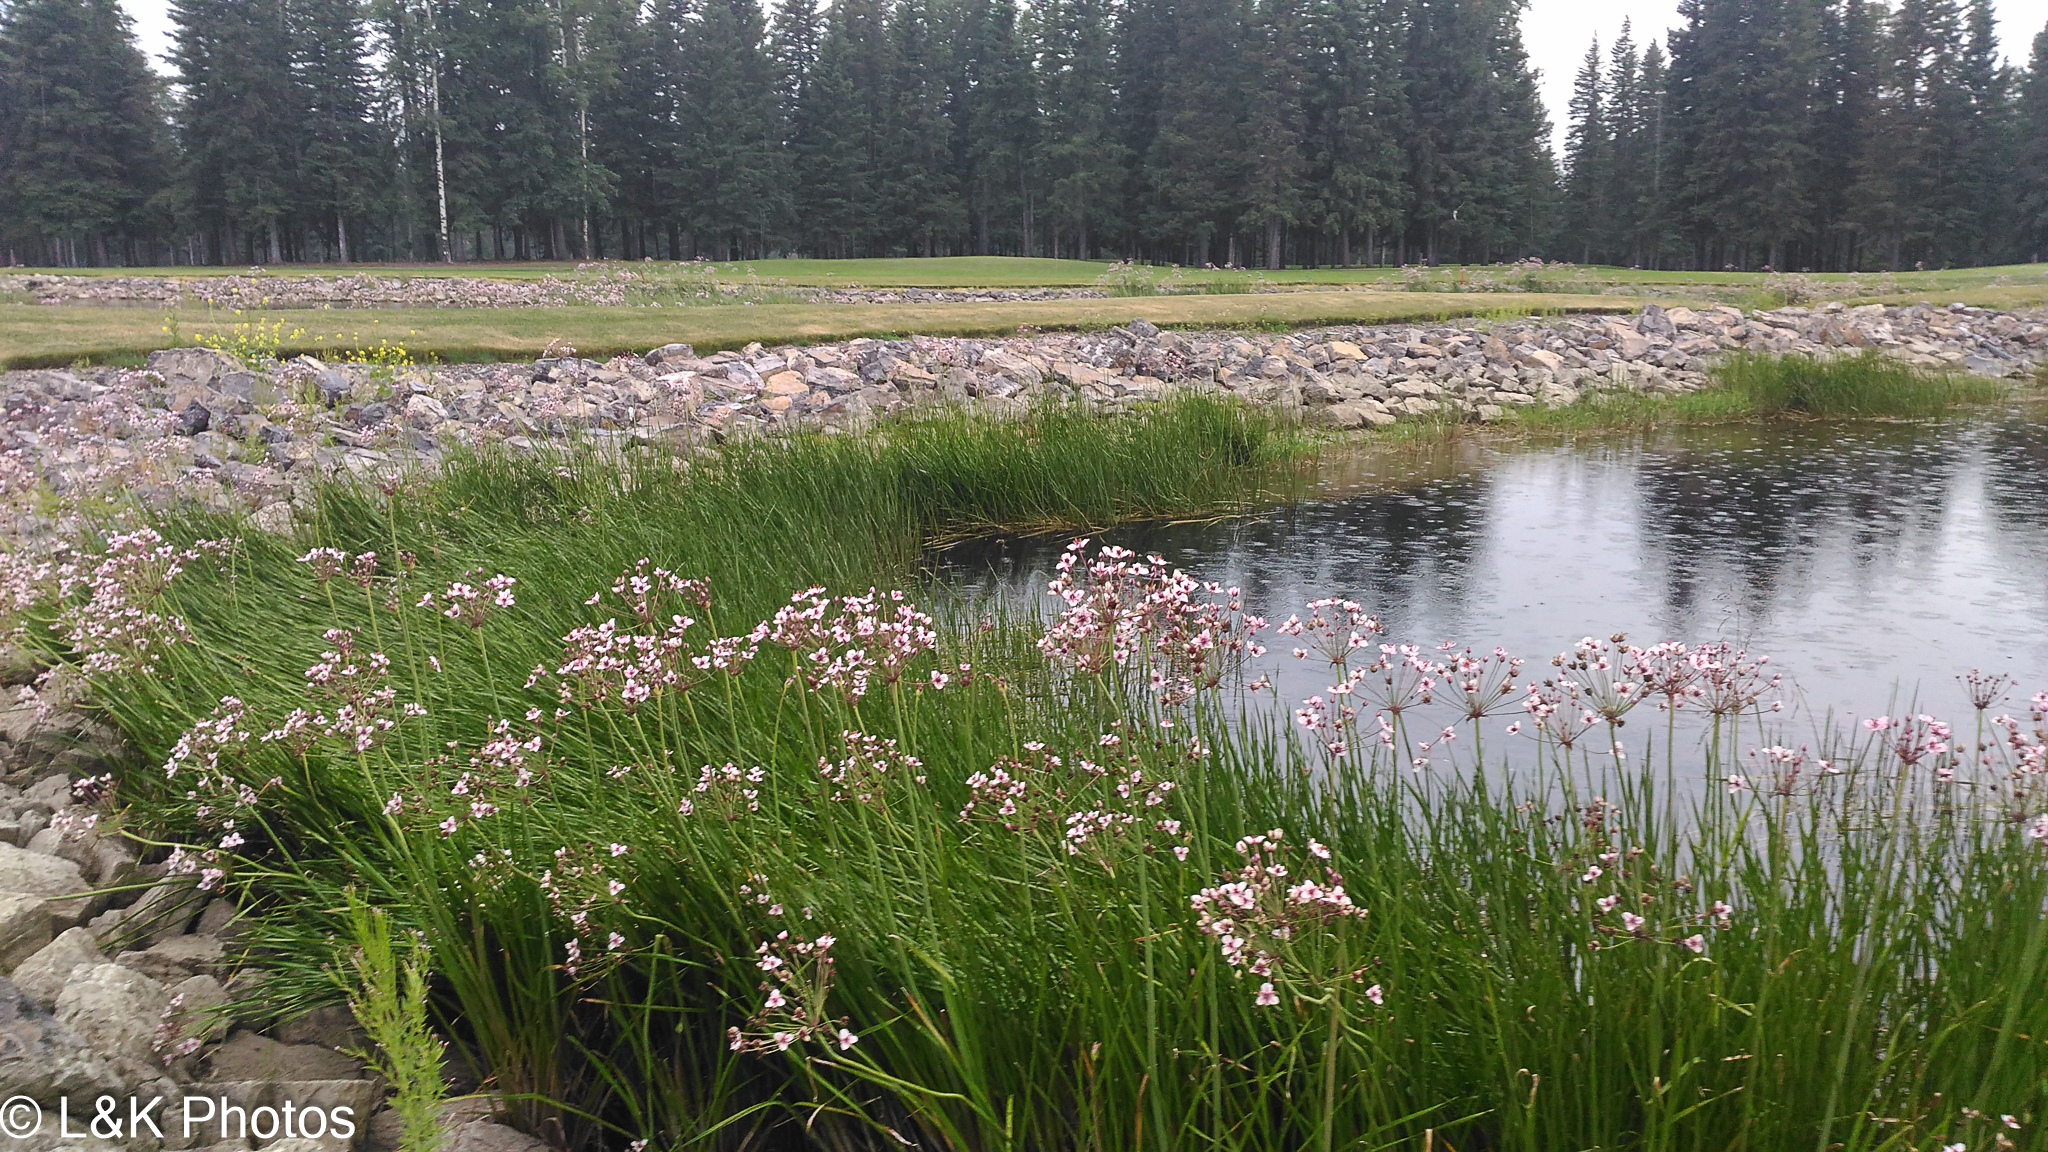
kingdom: Plantae
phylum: Tracheophyta
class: Liliopsida
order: Alismatales
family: Butomaceae
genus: Butomus
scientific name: Butomus umbellatus
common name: Flowering-rush
